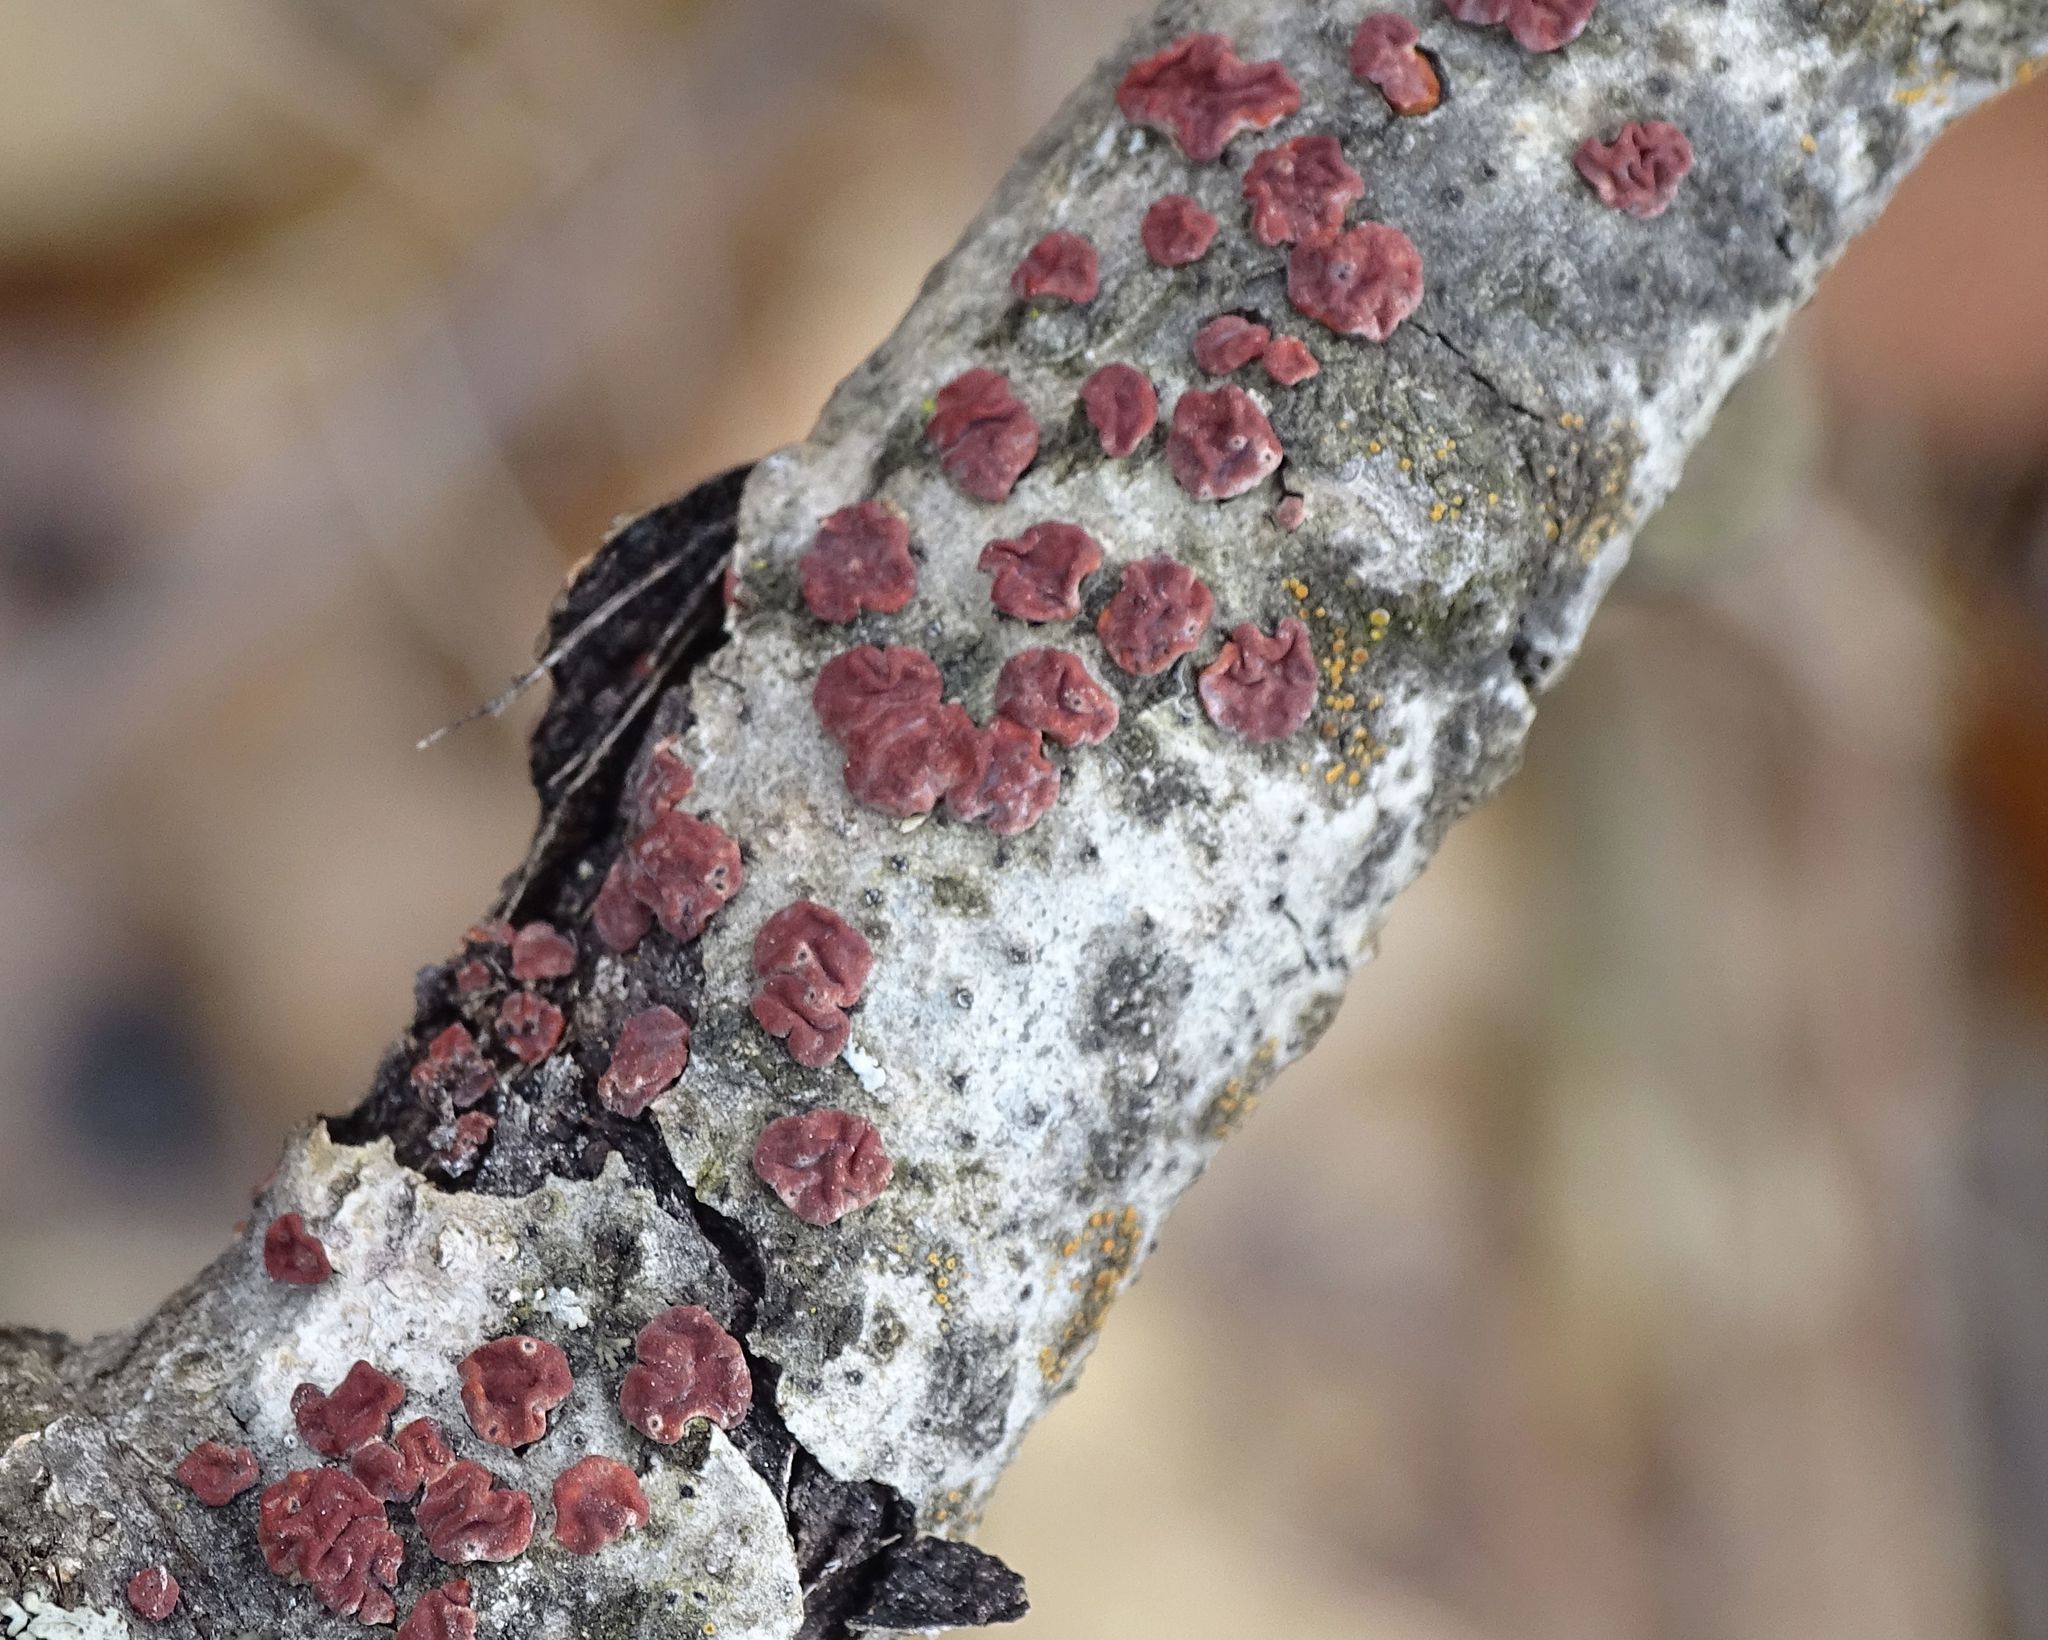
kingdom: Fungi
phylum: Basidiomycota
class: Agaricomycetes
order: Russulales
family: Peniophoraceae
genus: Peniophora
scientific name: Peniophora rufa
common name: Red tree brain fungus
